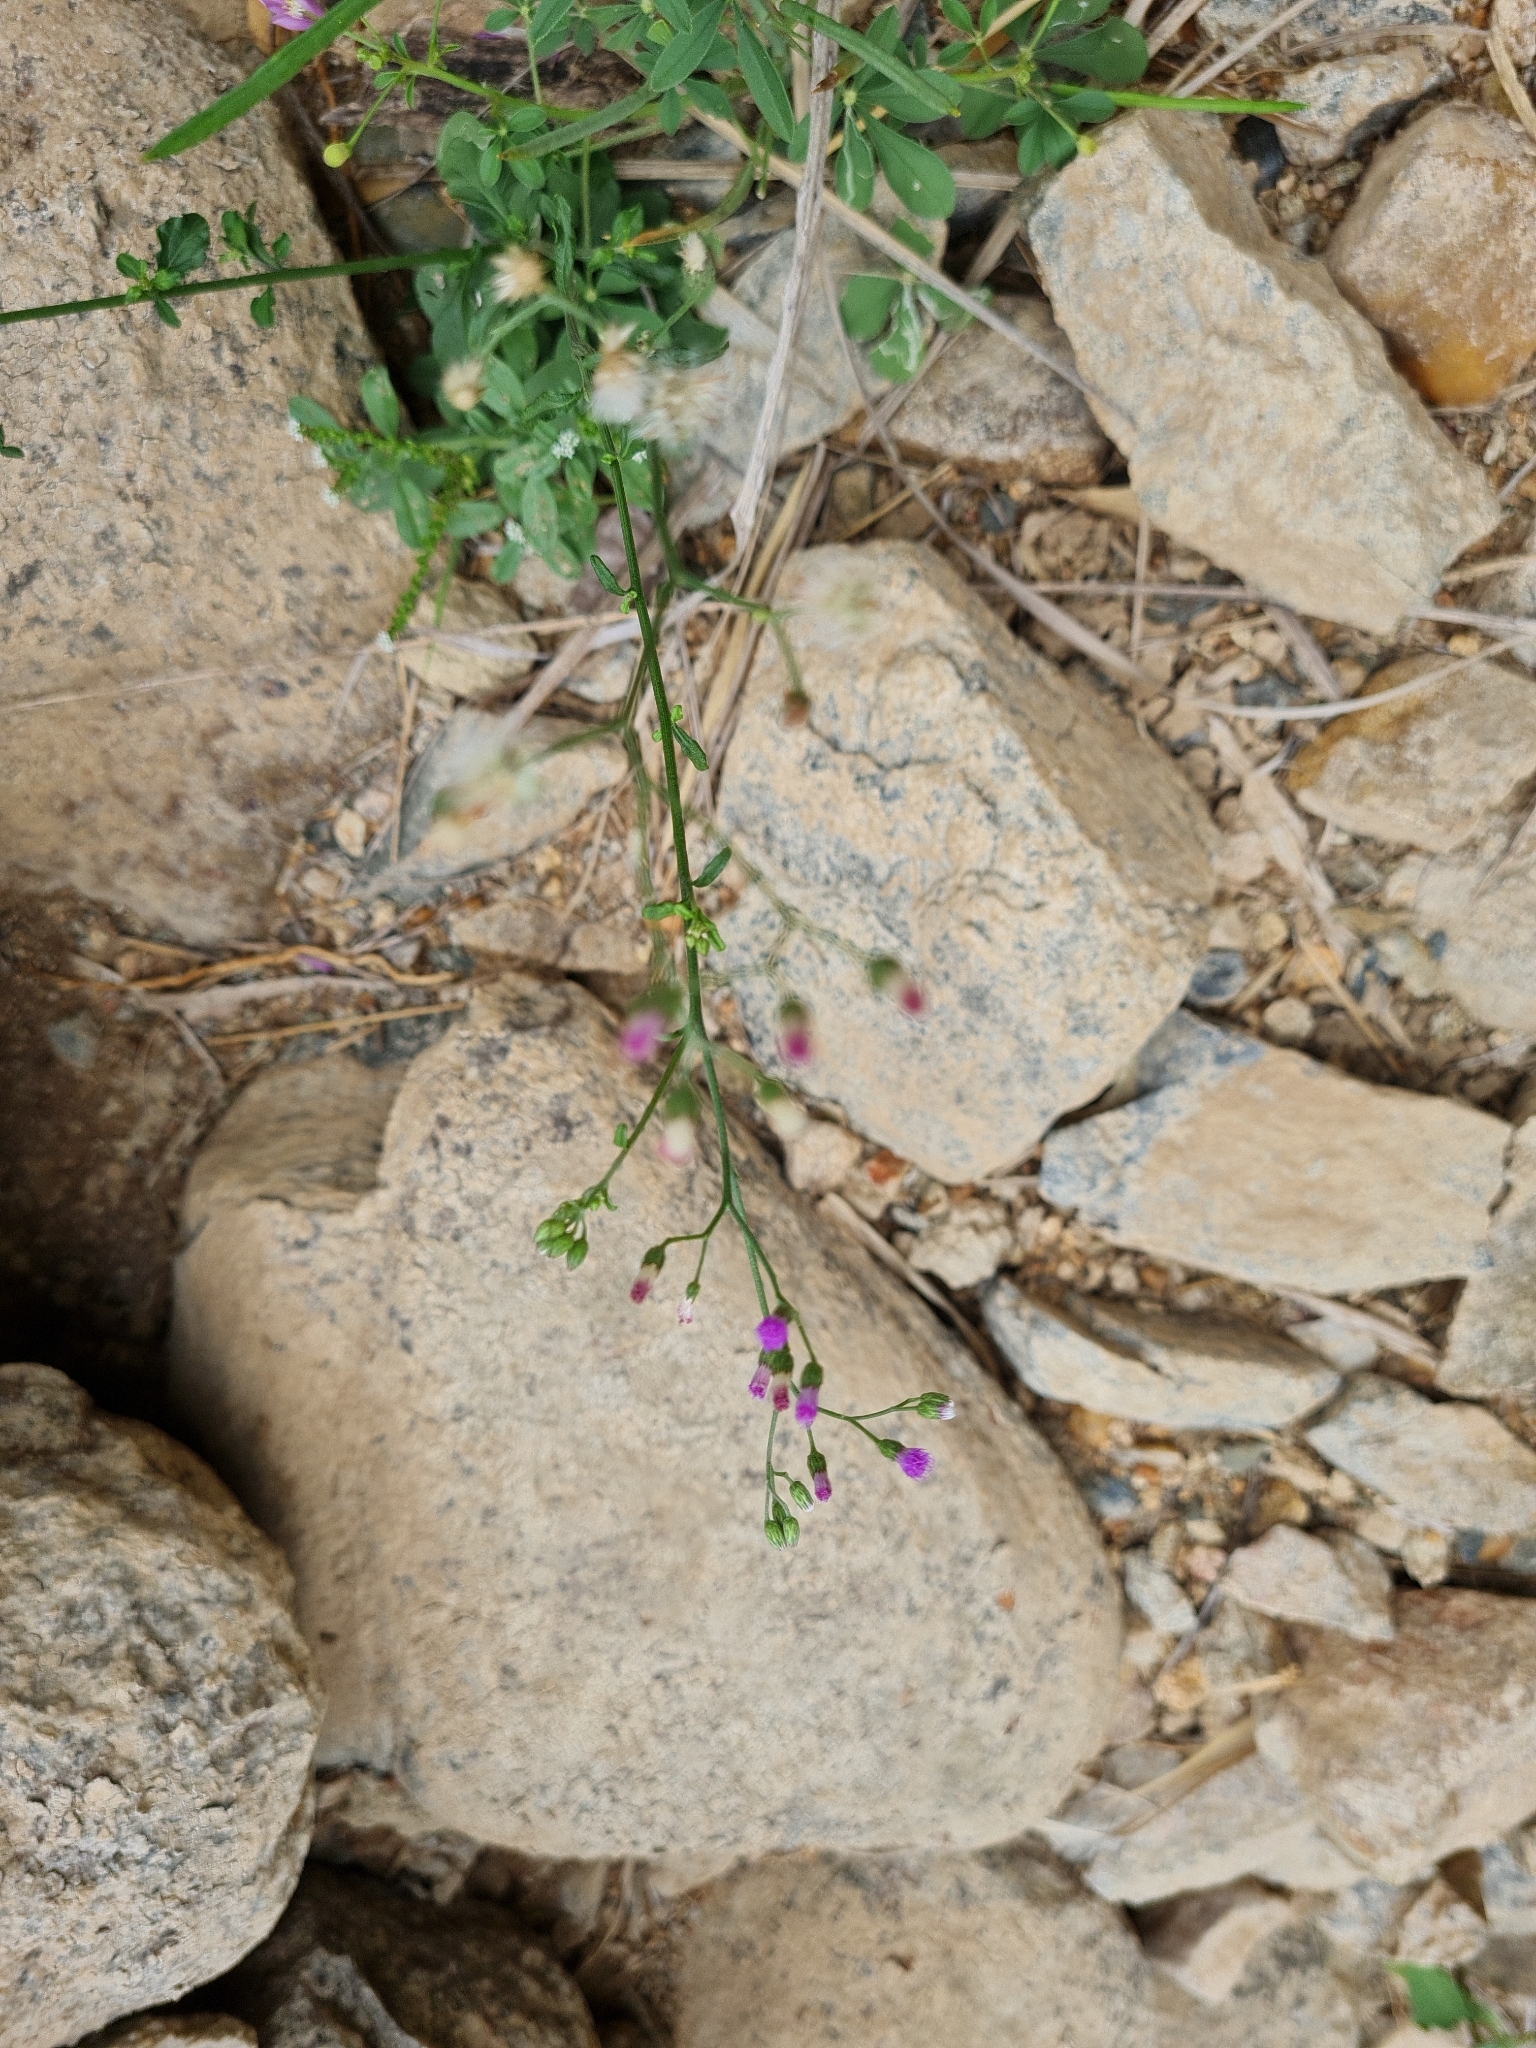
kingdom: Plantae
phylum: Tracheophyta
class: Magnoliopsida
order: Asterales
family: Asteraceae
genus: Cyanthillium
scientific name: Cyanthillium cinereum
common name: Little ironweed
